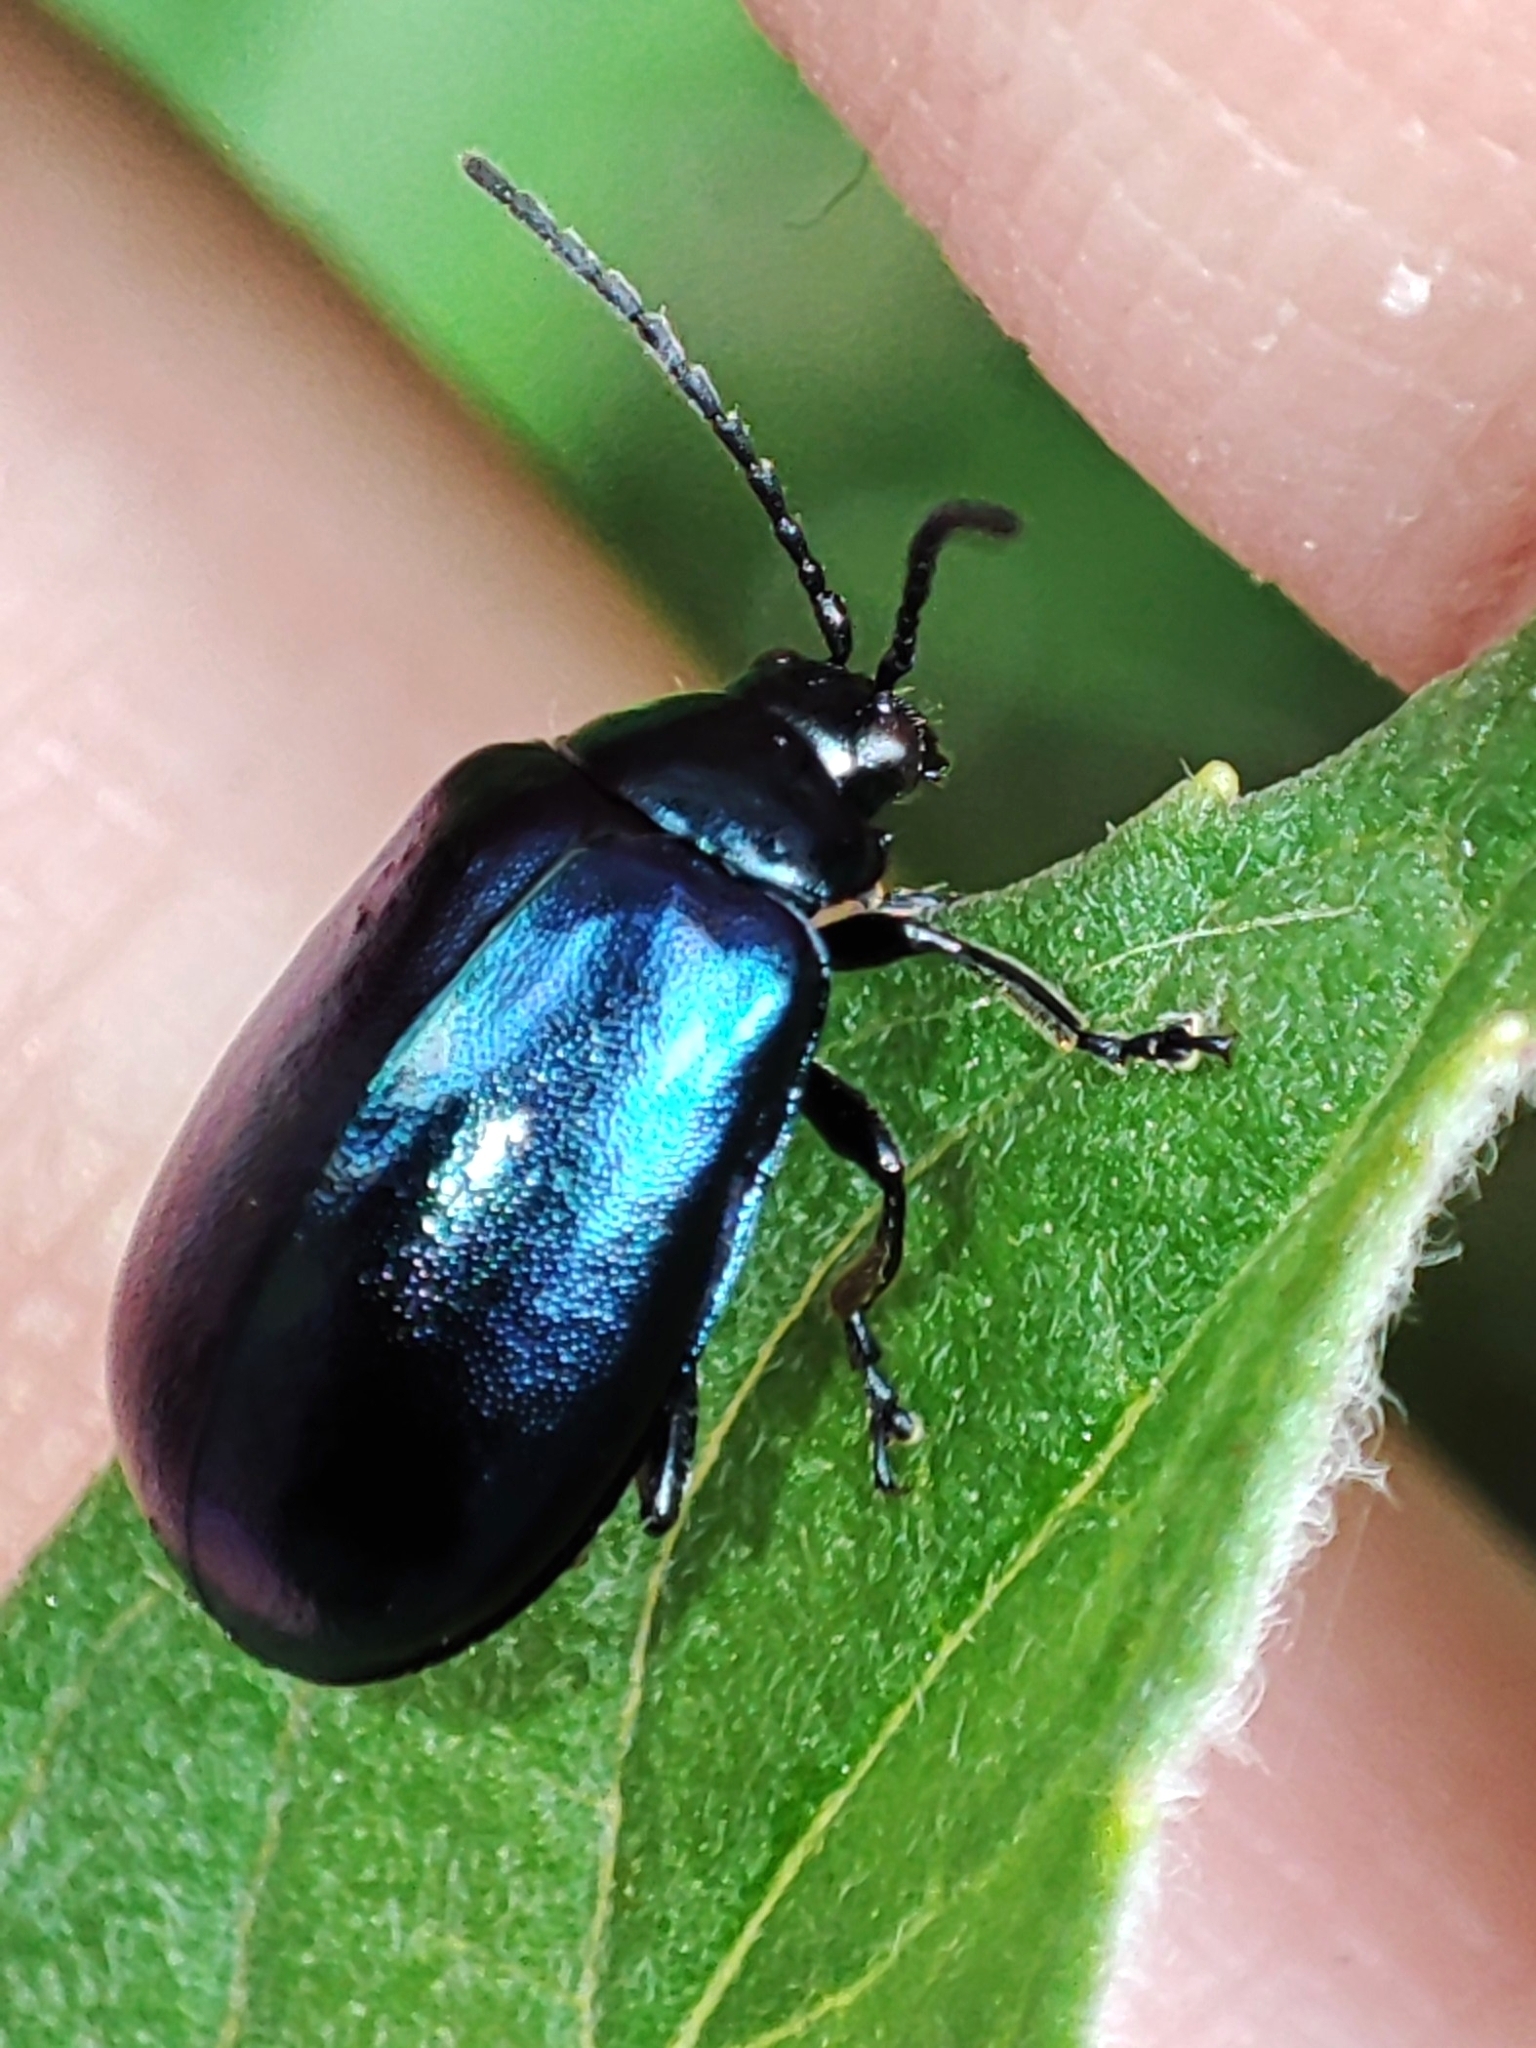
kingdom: Animalia
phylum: Arthropoda
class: Insecta
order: Coleoptera
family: Chrysomelidae
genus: Agelastica
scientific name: Agelastica alni
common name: Alder leaf beetle
